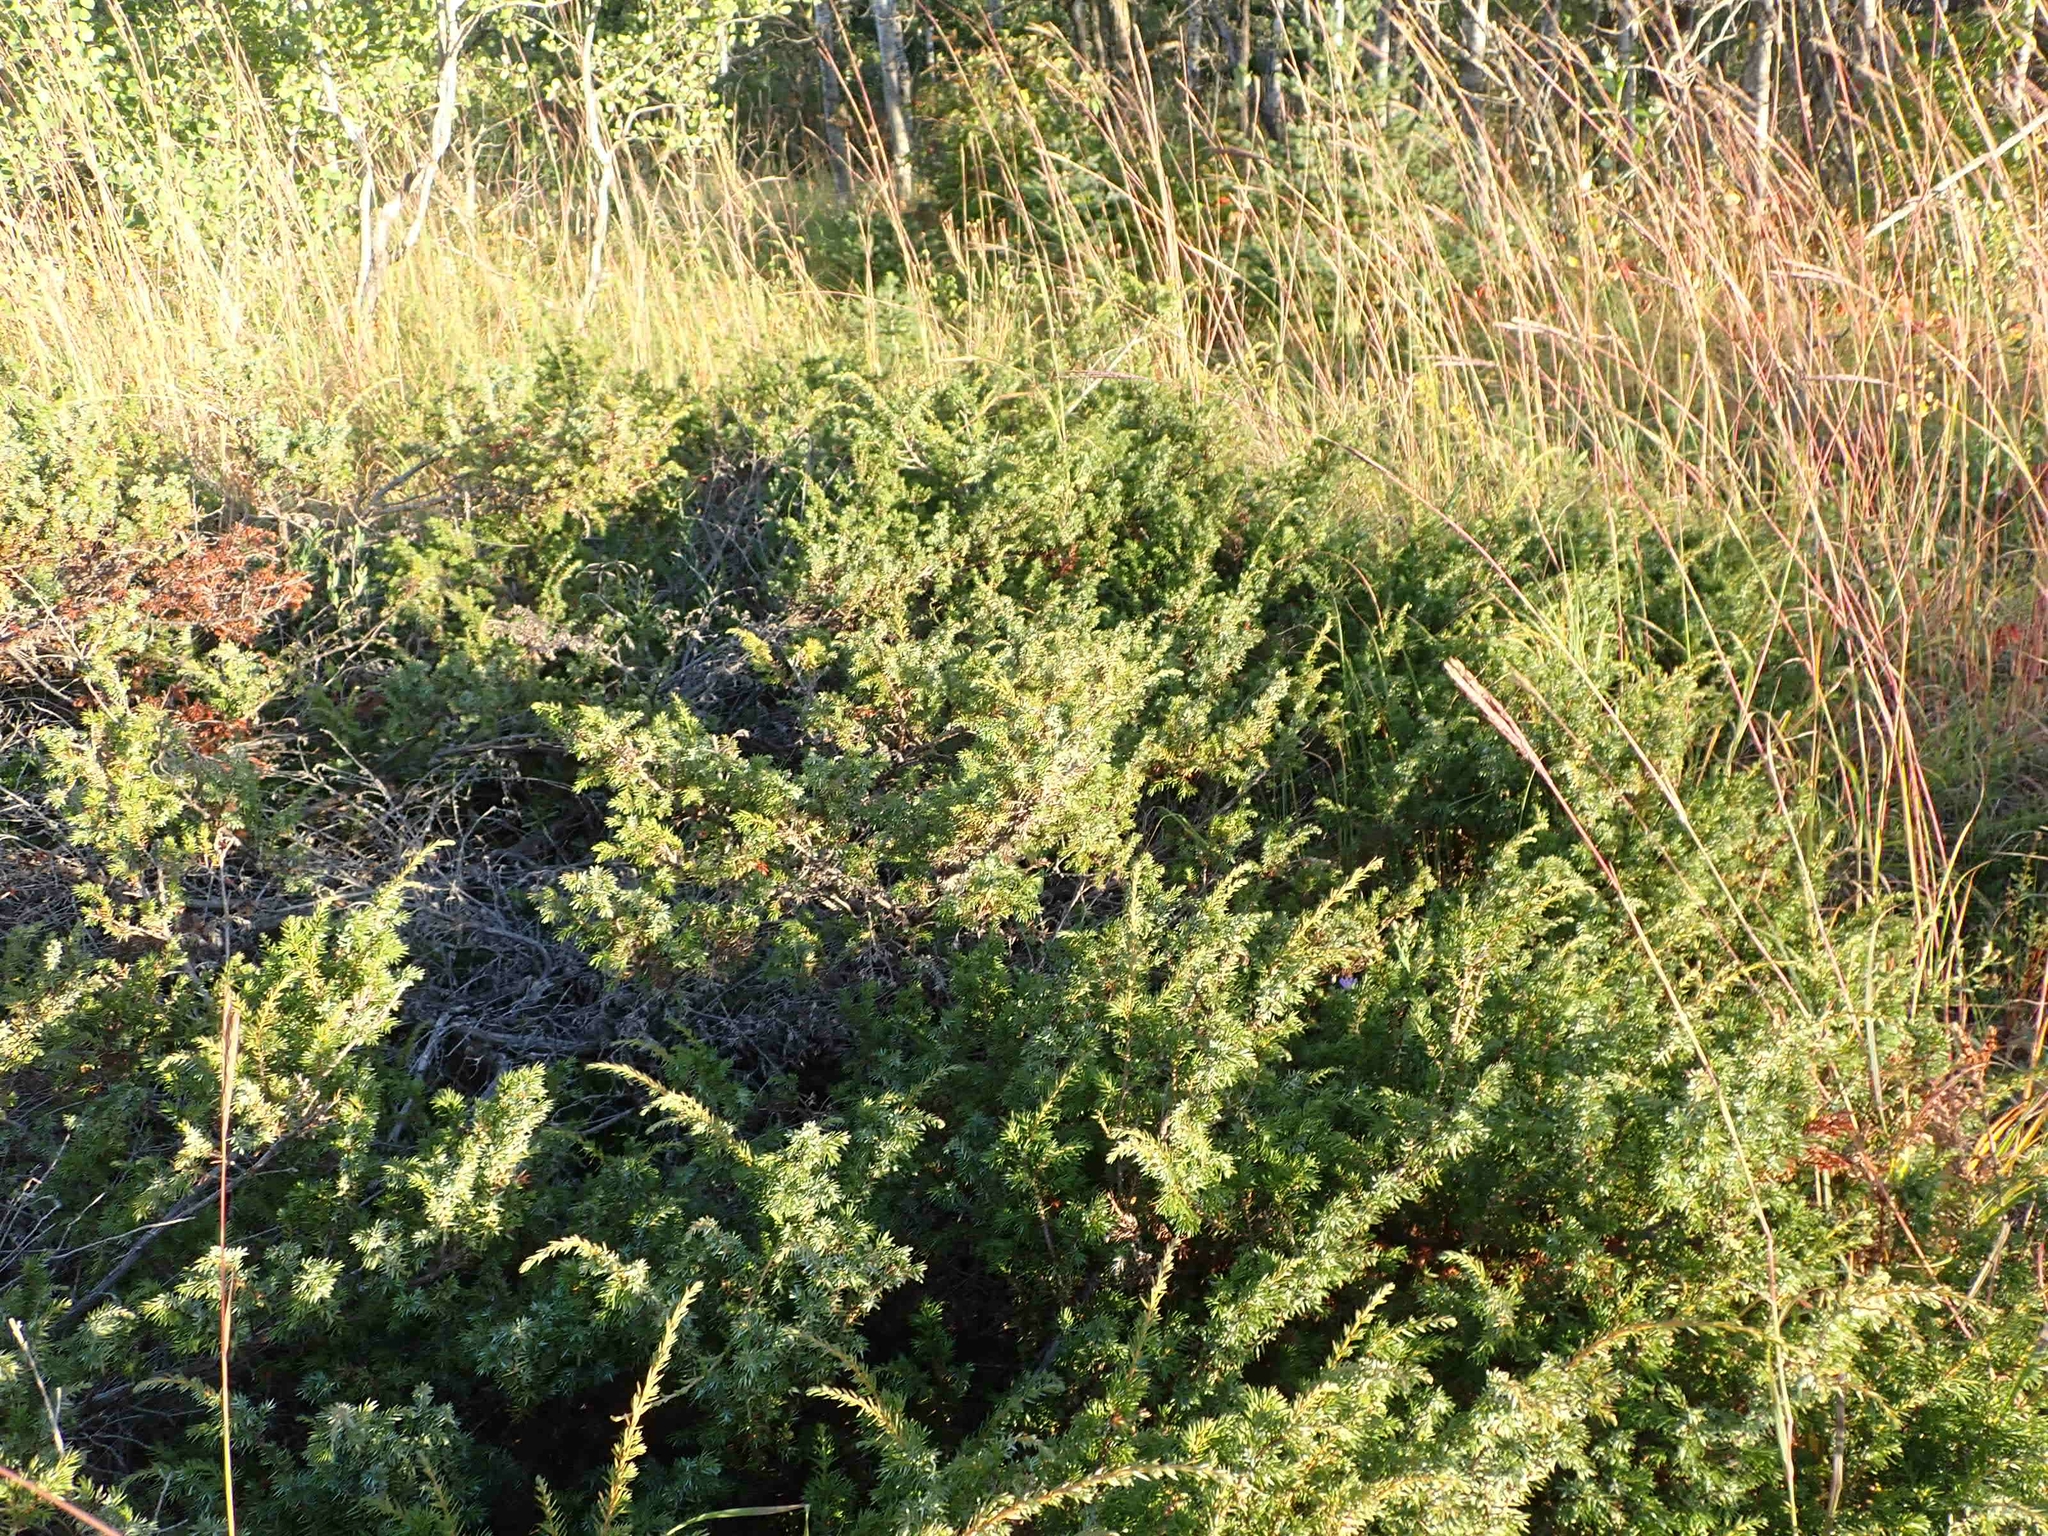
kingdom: Plantae
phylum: Tracheophyta
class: Pinopsida
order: Pinales
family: Cupressaceae
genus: Juniperus
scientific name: Juniperus communis
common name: Common juniper
